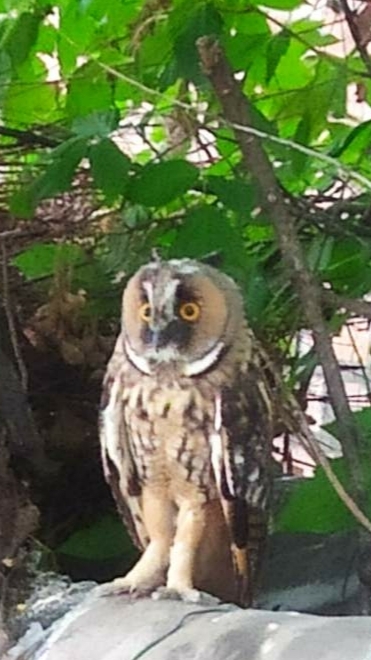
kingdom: Animalia
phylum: Chordata
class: Aves
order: Strigiformes
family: Strigidae
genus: Asio
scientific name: Asio otus
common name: Long-eared owl
